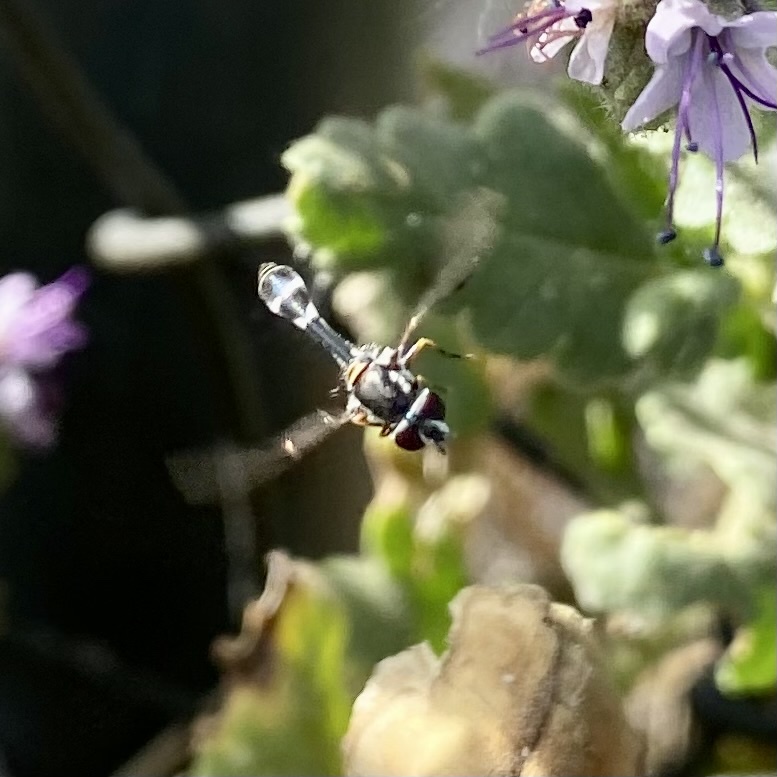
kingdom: Animalia
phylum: Arthropoda
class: Insecta
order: Diptera
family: Syrphidae
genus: Dioprosopa
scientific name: Dioprosopa clavatus
